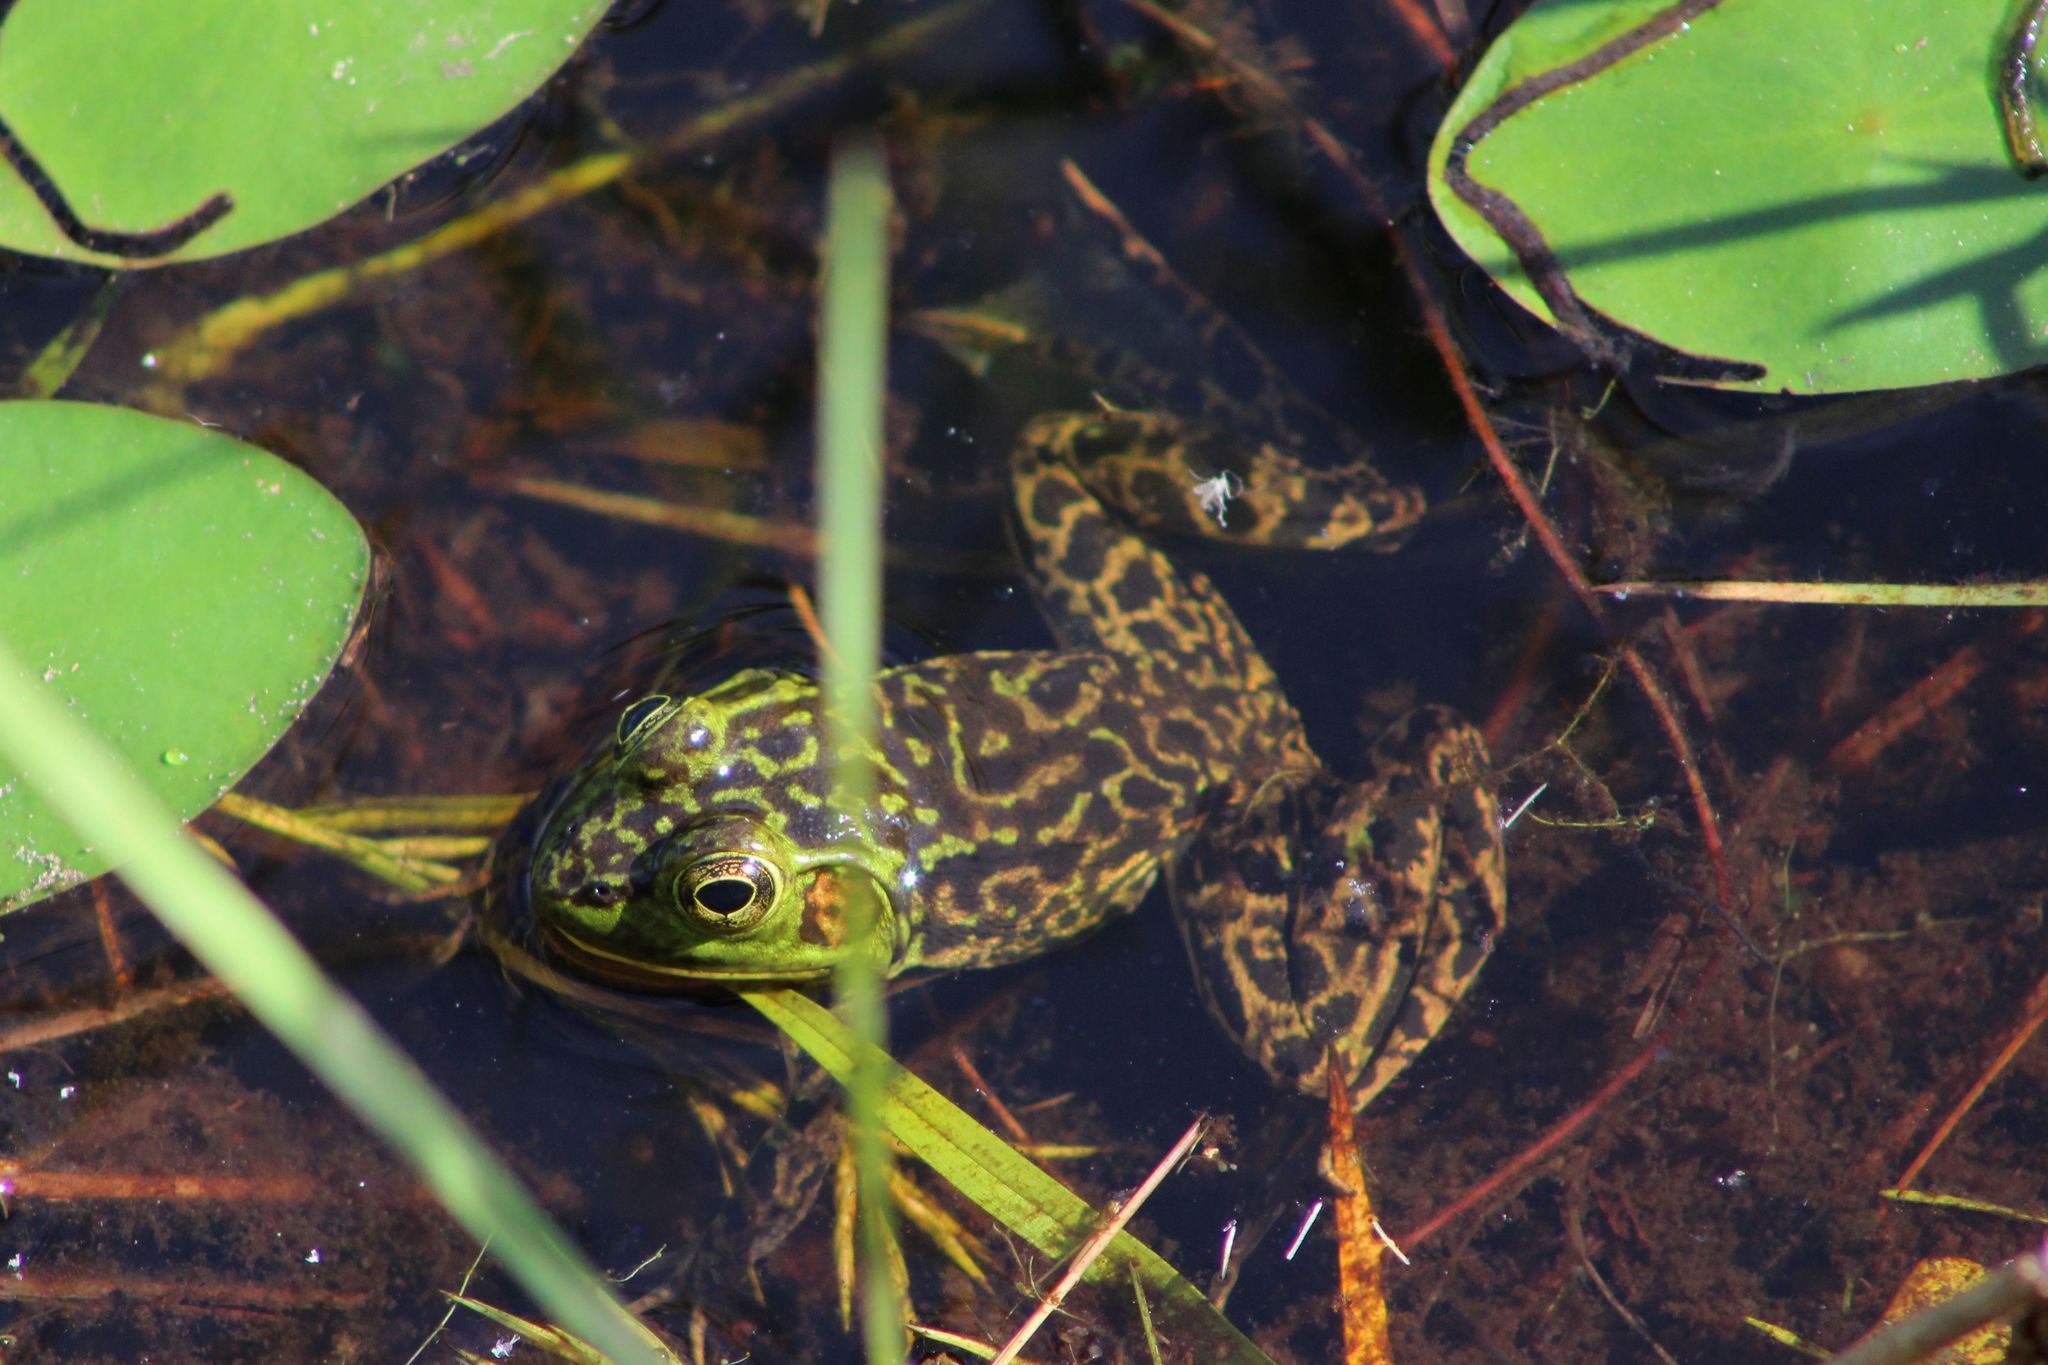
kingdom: Animalia
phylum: Chordata
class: Amphibia
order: Anura
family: Ranidae
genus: Lithobates
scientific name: Lithobates septentrionalis
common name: Mink frog
